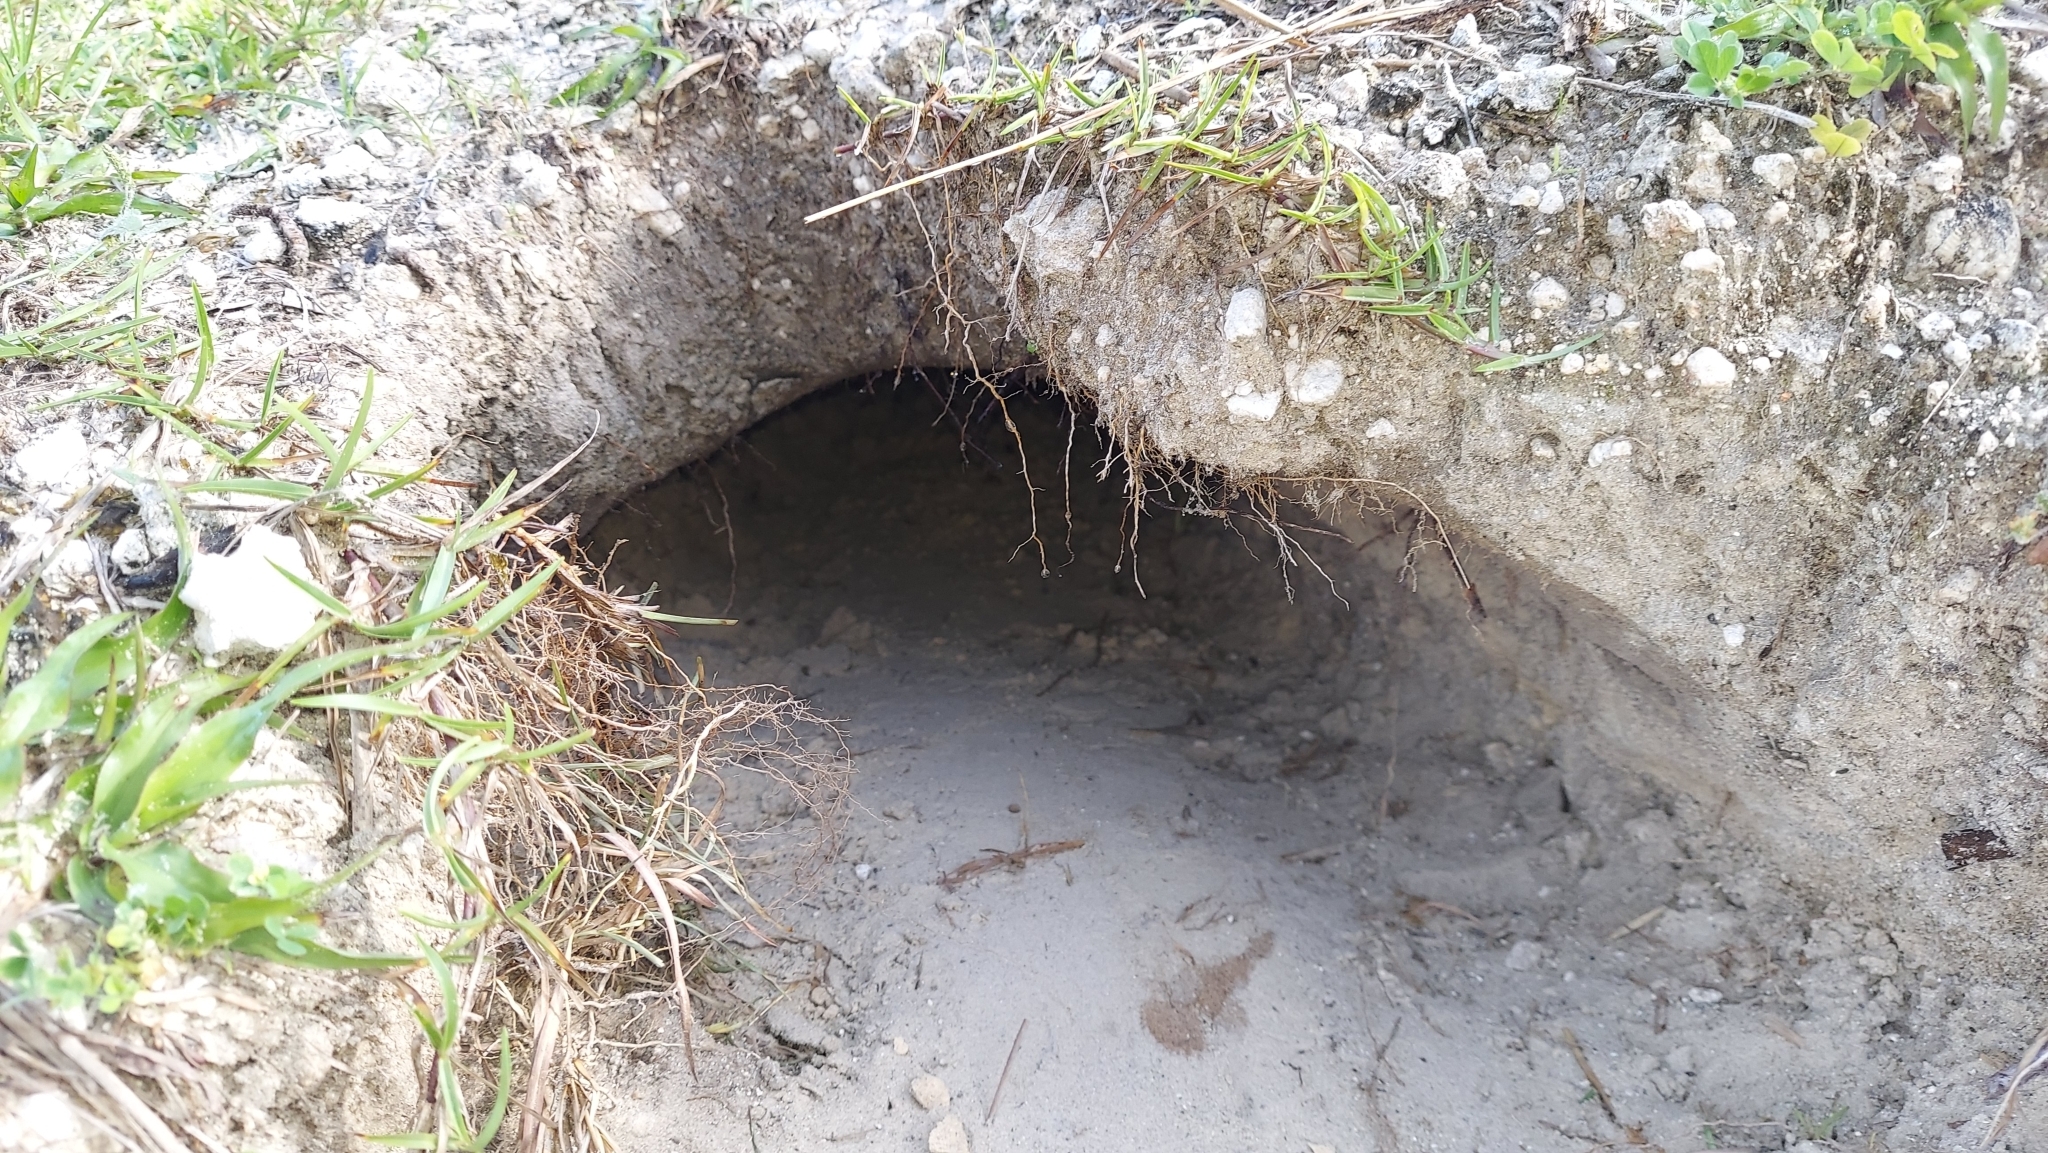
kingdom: Animalia
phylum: Chordata
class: Testudines
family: Testudinidae
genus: Gopherus
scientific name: Gopherus polyphemus
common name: Florida gopher tortoise
